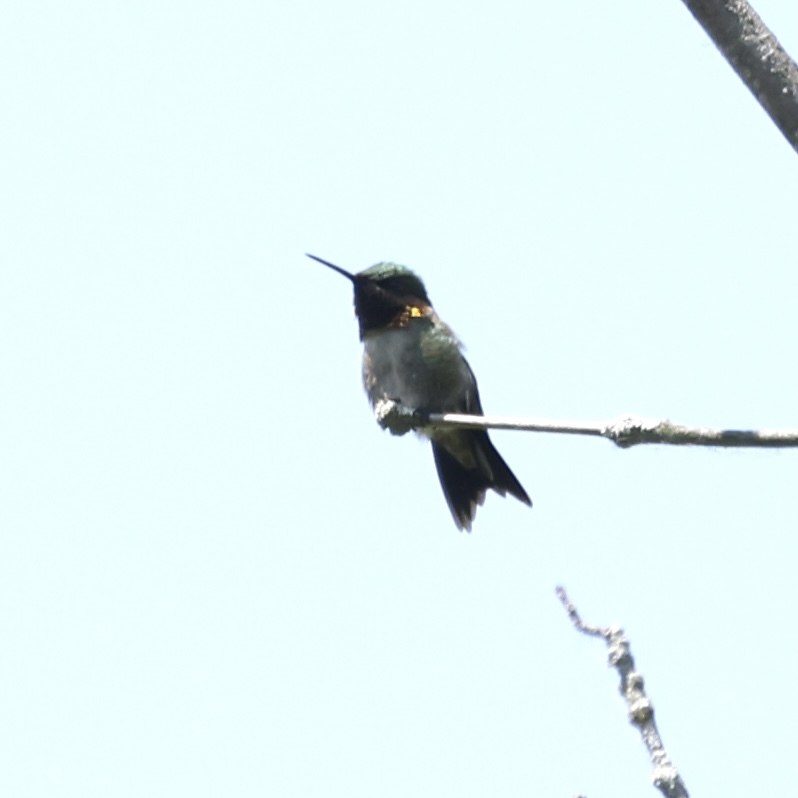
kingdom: Animalia
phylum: Chordata
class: Aves
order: Apodiformes
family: Trochilidae
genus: Archilochus
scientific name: Archilochus colubris
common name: Ruby-throated hummingbird
